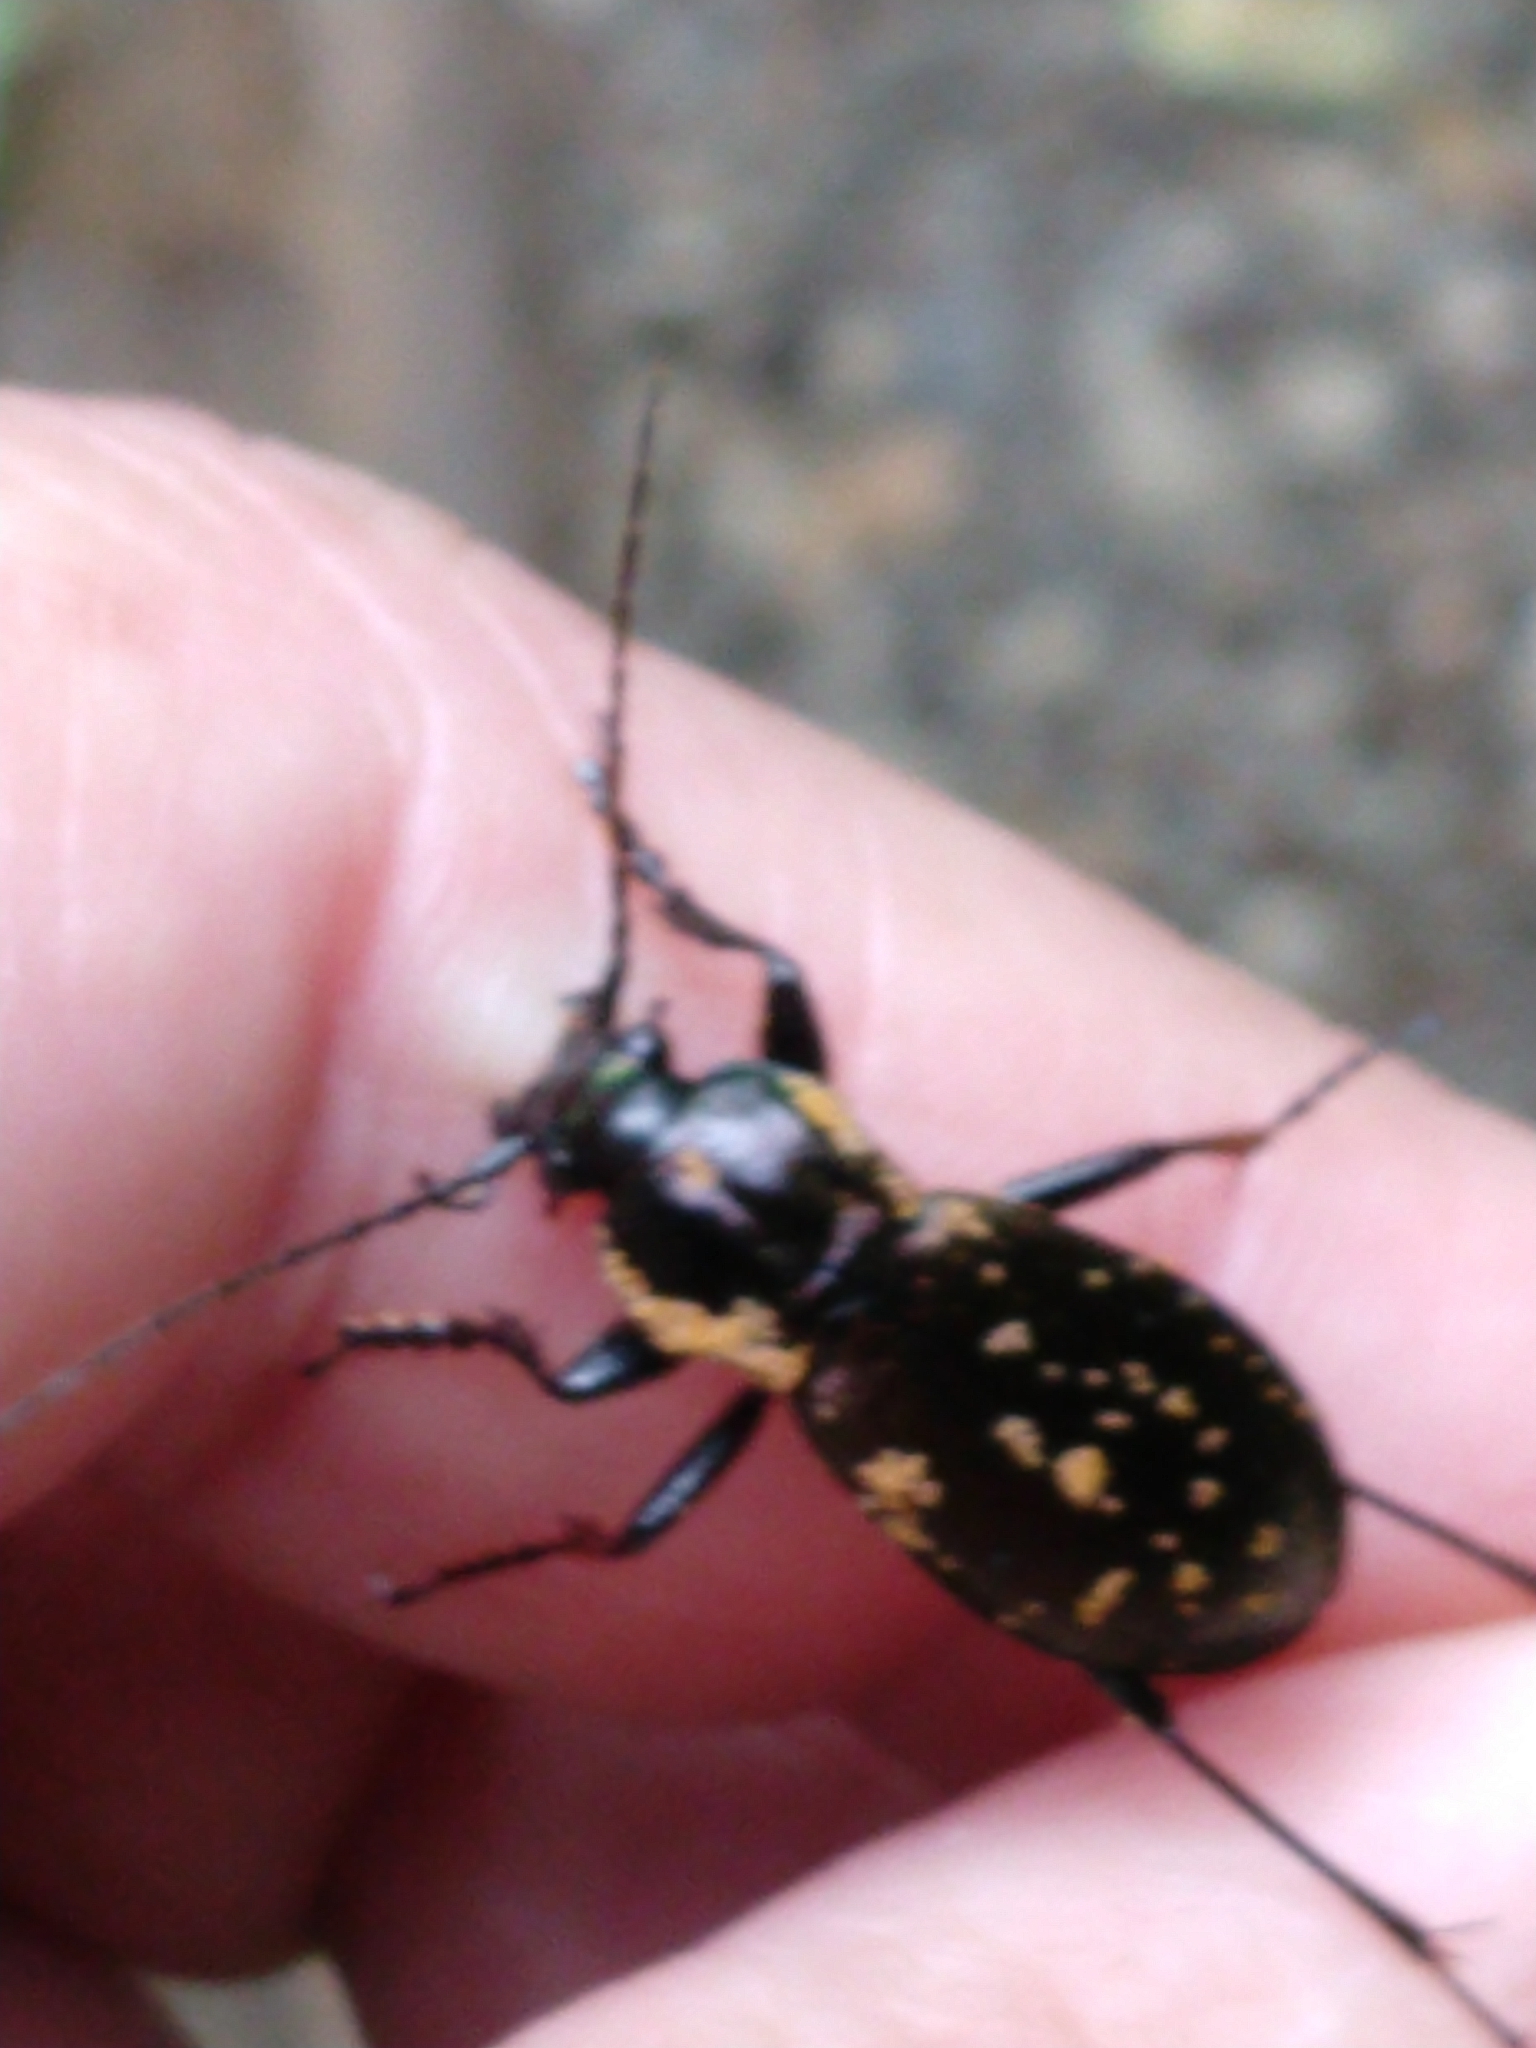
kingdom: Animalia
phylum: Arthropoda
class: Insecta
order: Coleoptera
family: Carabidae
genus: Carabus
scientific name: Carabus albrechti
